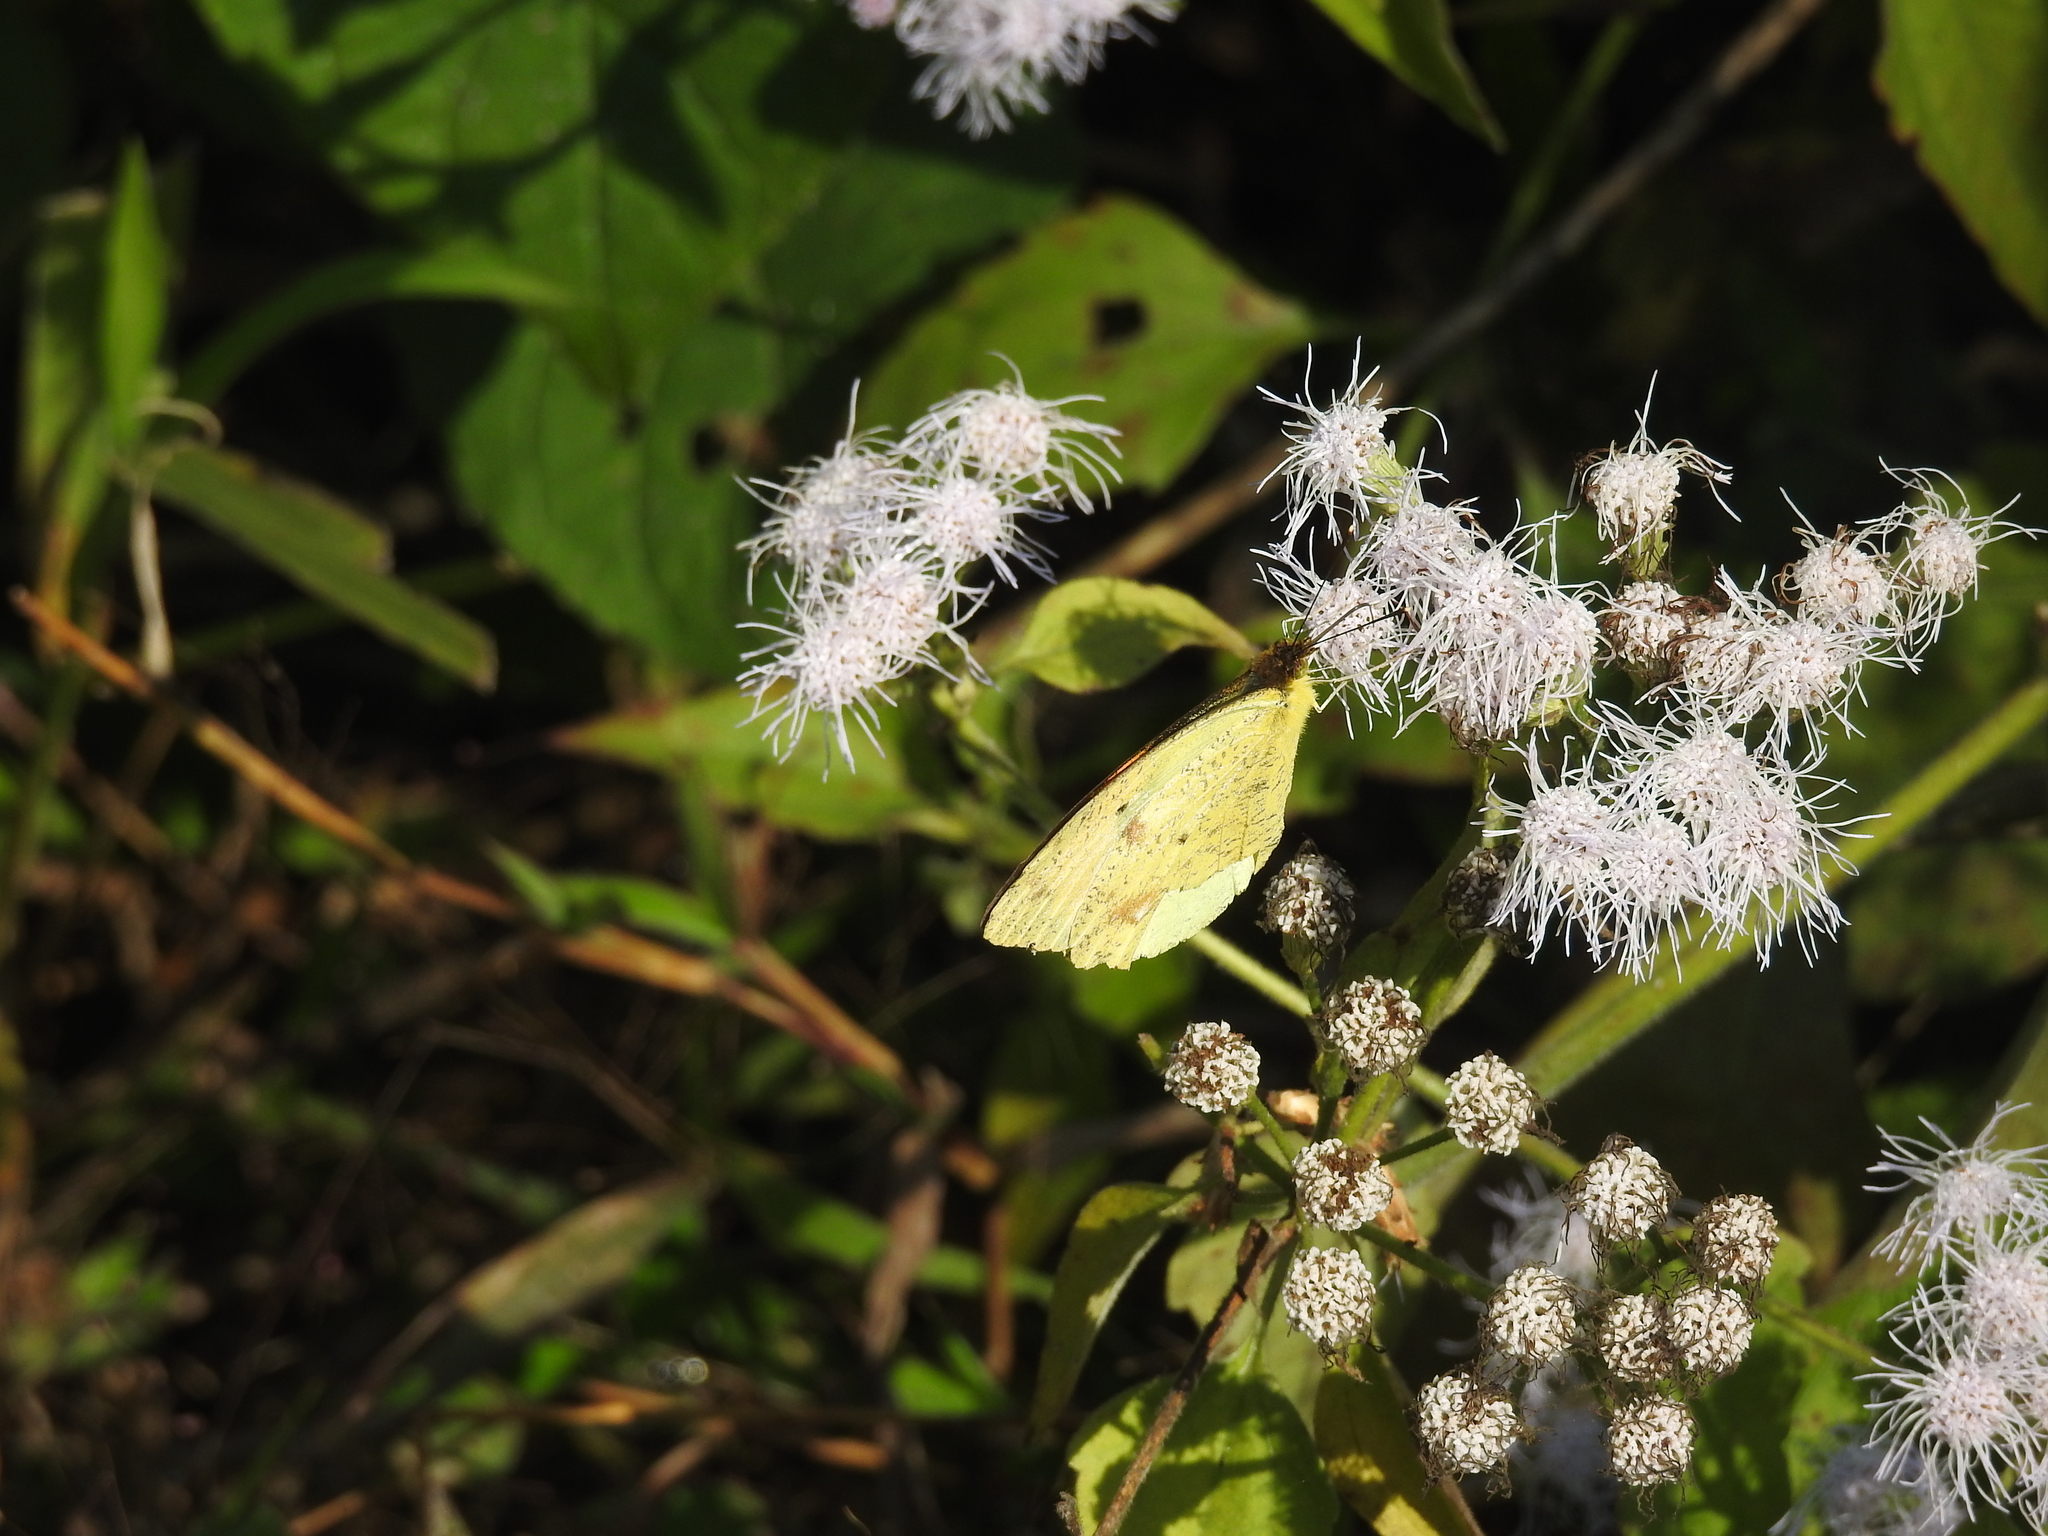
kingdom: Animalia
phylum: Arthropoda
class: Insecta
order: Lepidoptera
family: Pieridae
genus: Ixias
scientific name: Ixias pyrene
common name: Yellow orange tip
